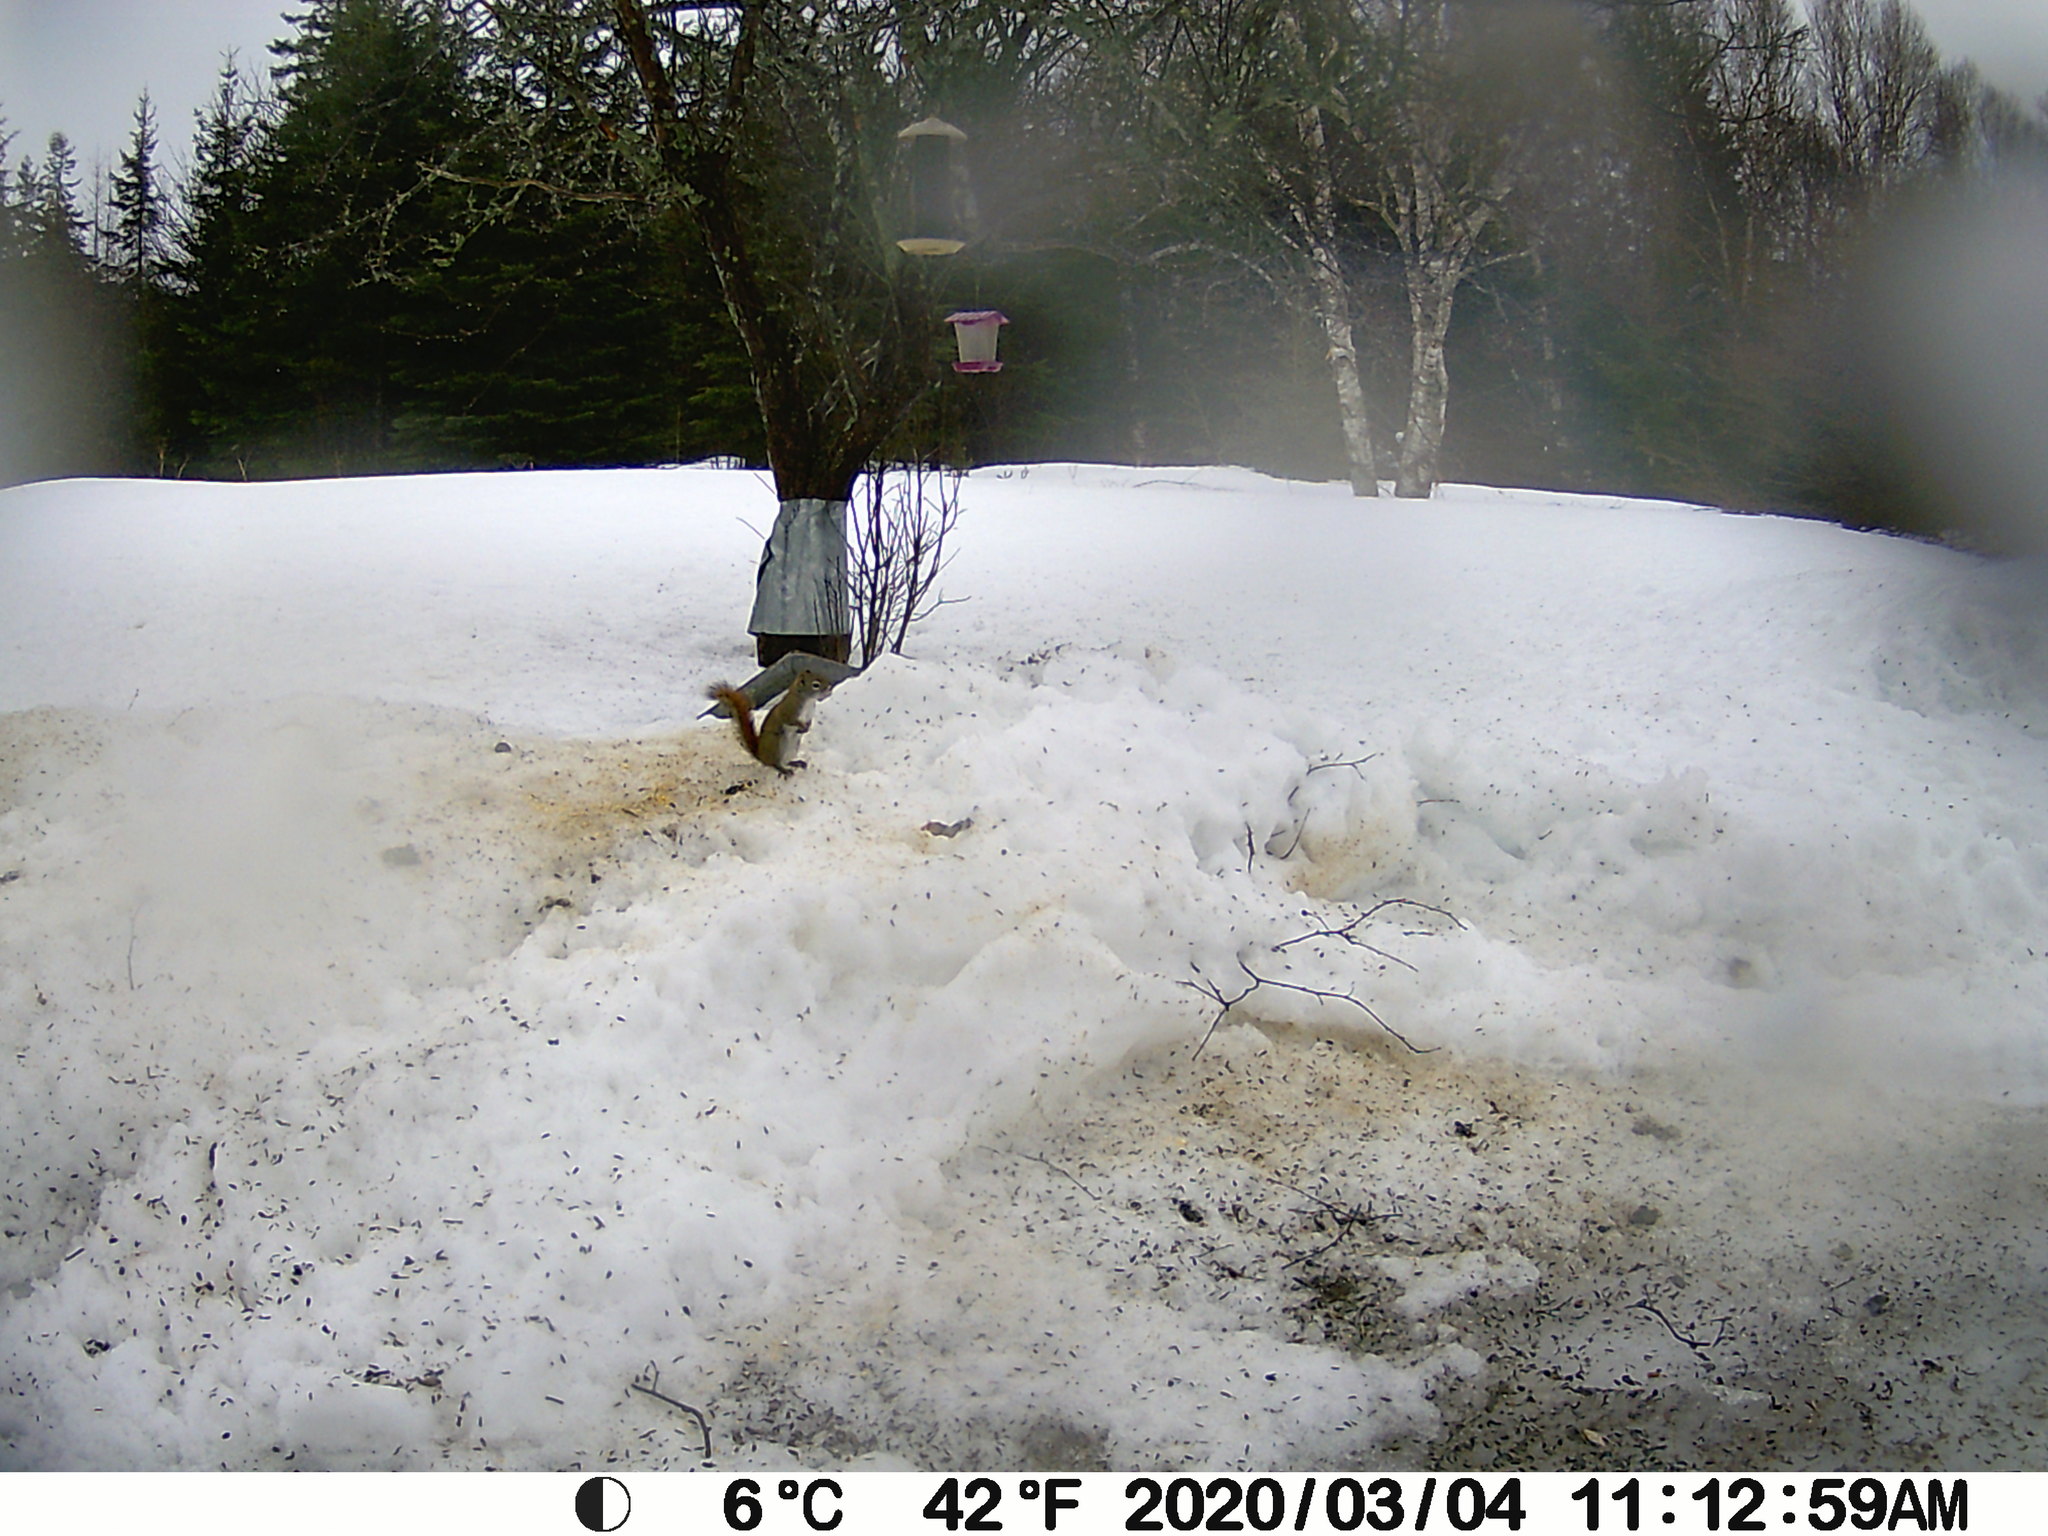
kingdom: Animalia
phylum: Chordata
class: Mammalia
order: Rodentia
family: Sciuridae
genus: Tamiasciurus
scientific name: Tamiasciurus hudsonicus
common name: Red squirrel
